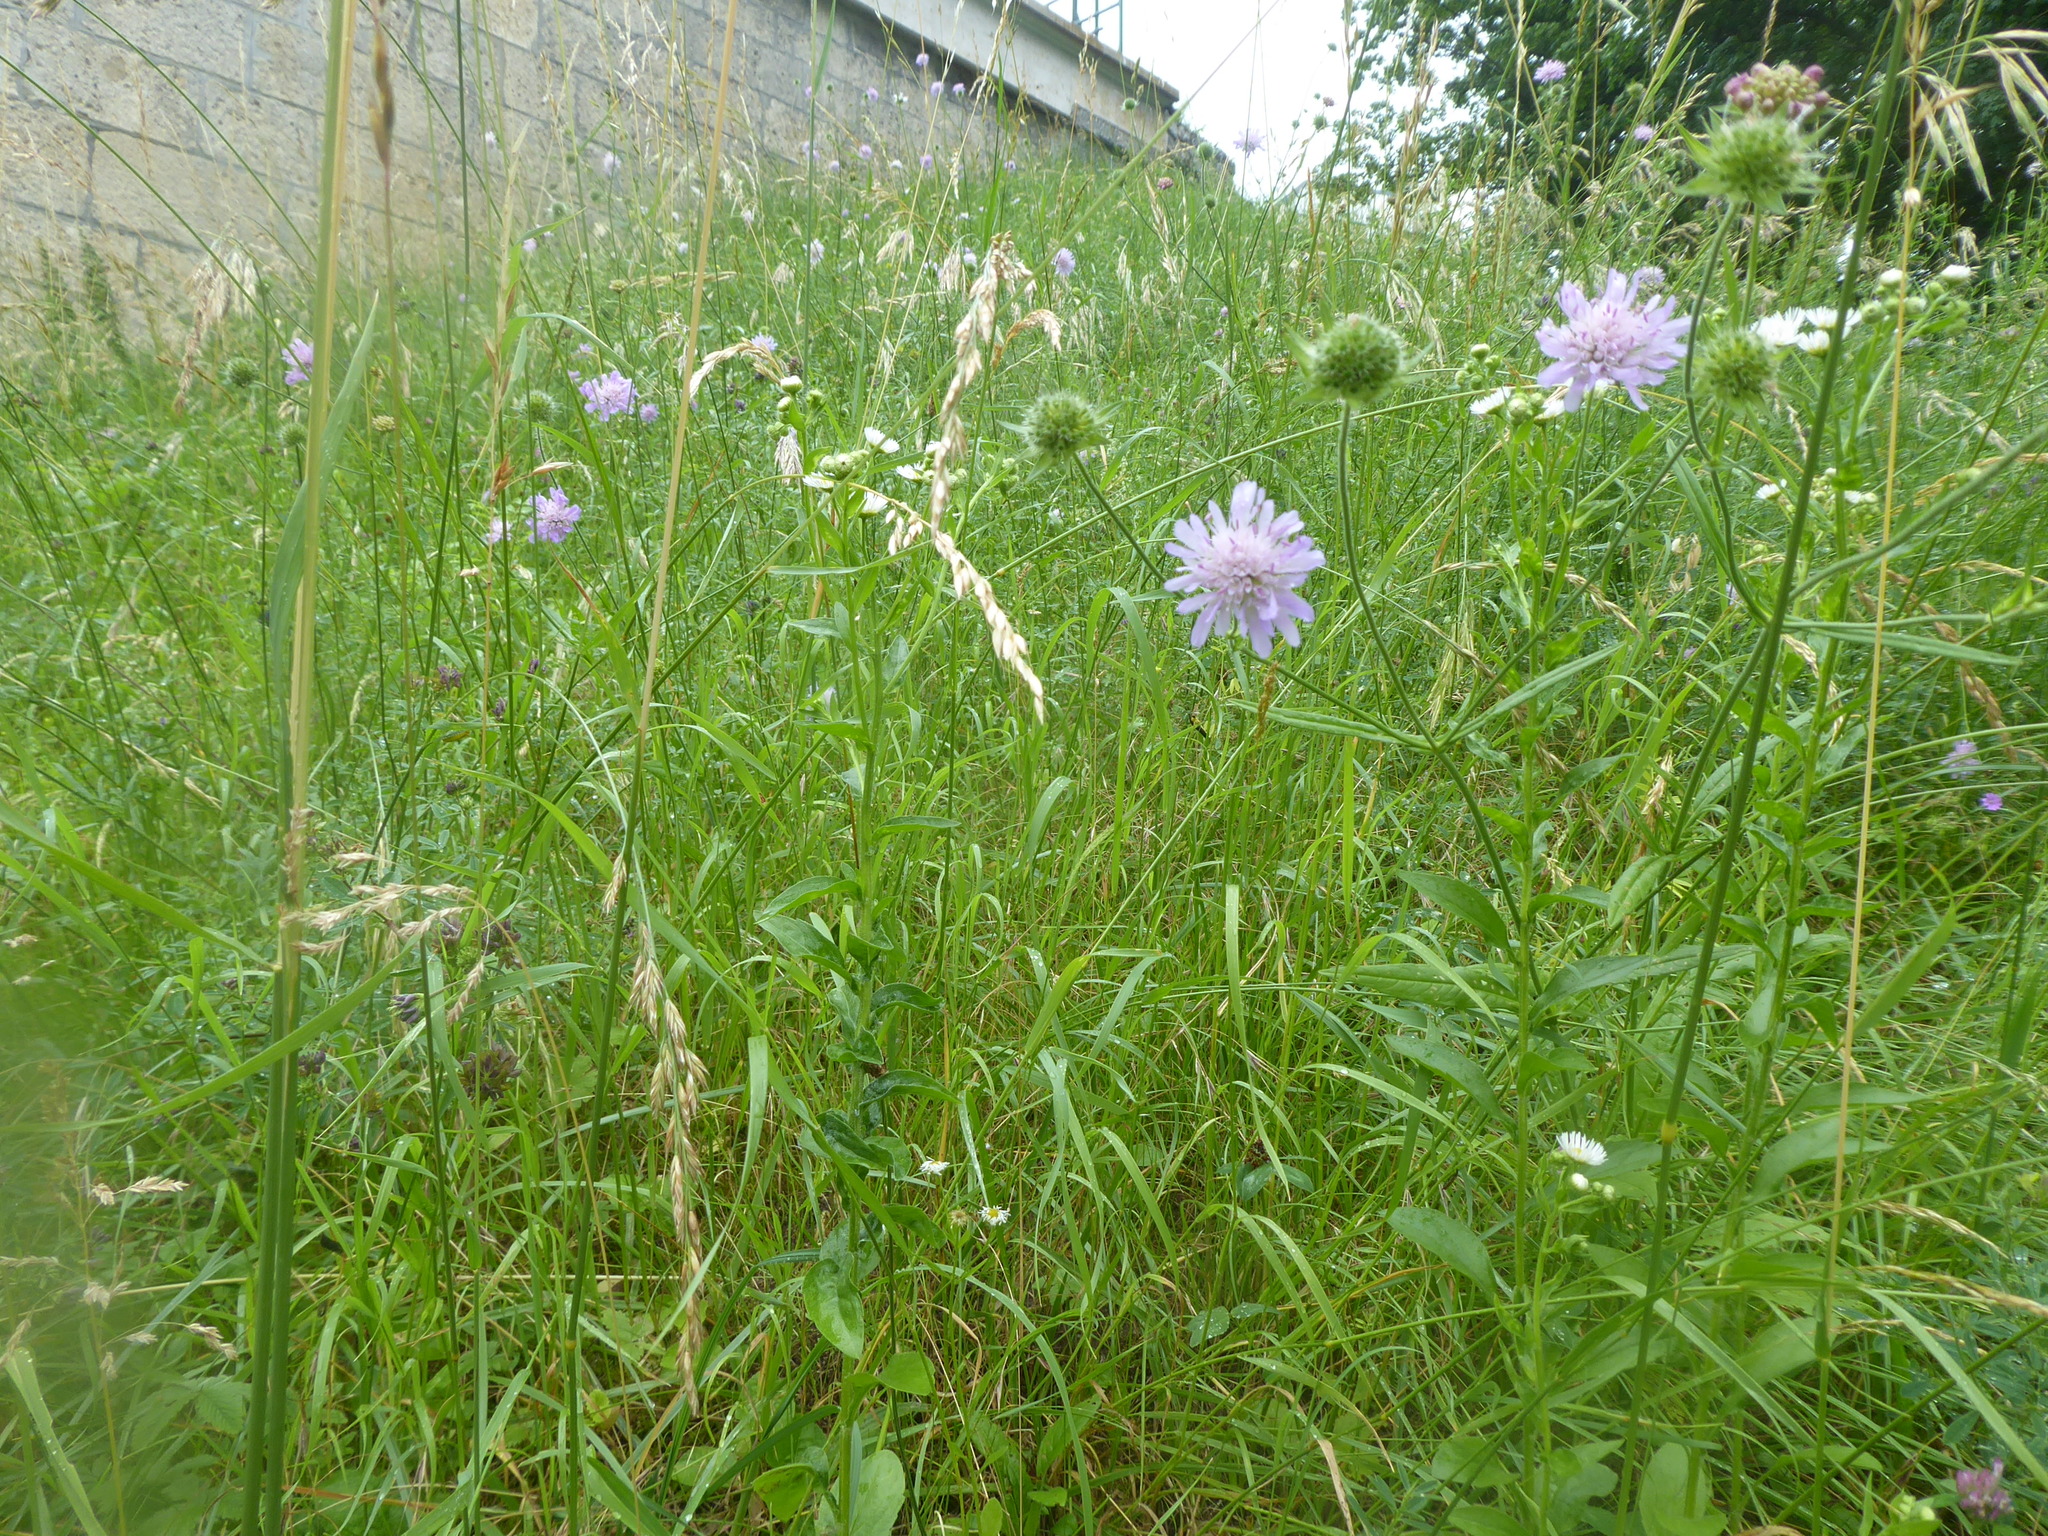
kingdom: Plantae
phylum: Tracheophyta
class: Magnoliopsida
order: Dipsacales
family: Caprifoliaceae
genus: Knautia
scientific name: Knautia arvensis
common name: Field scabiosa
